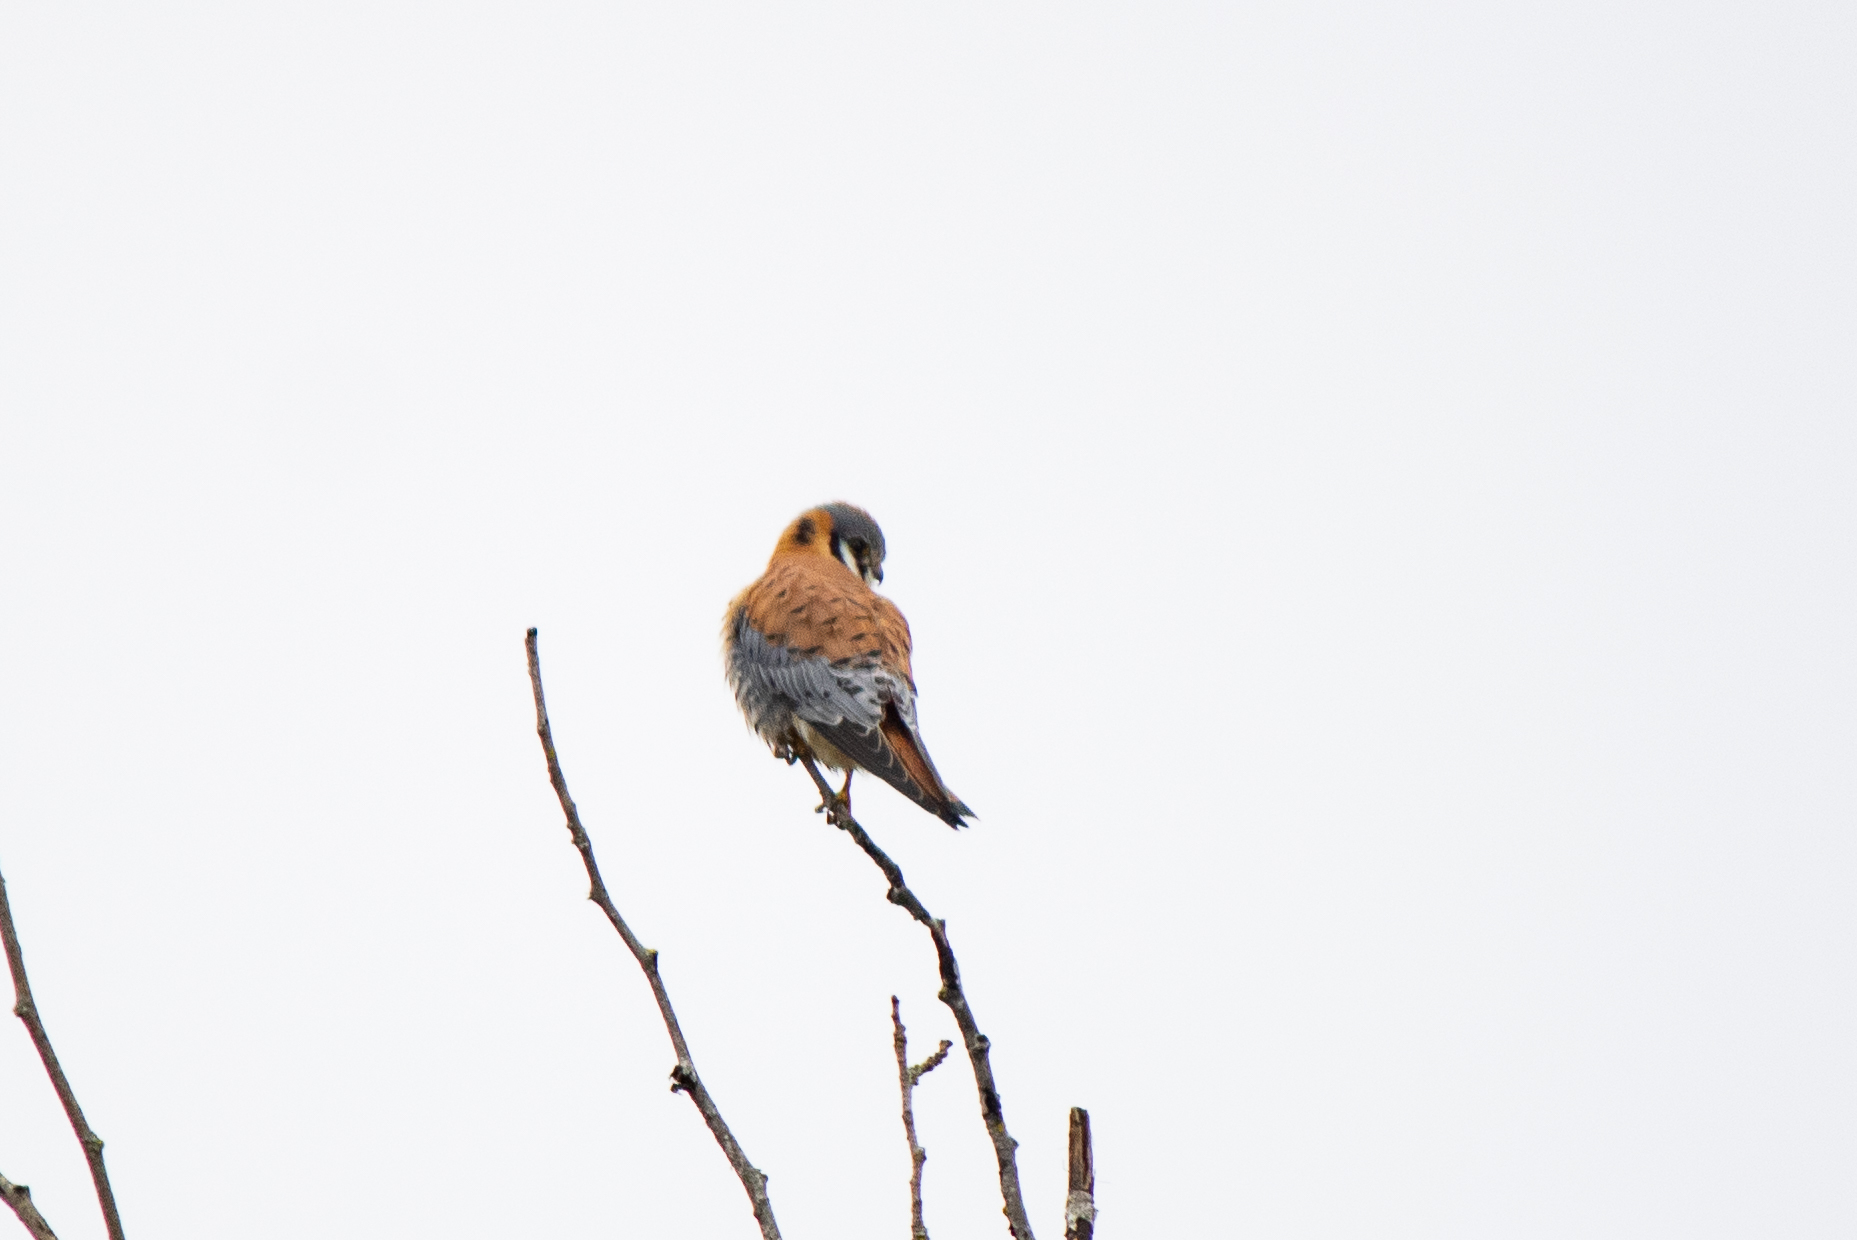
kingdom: Animalia
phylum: Chordata
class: Aves
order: Falconiformes
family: Falconidae
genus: Falco
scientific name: Falco sparverius
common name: American kestrel
